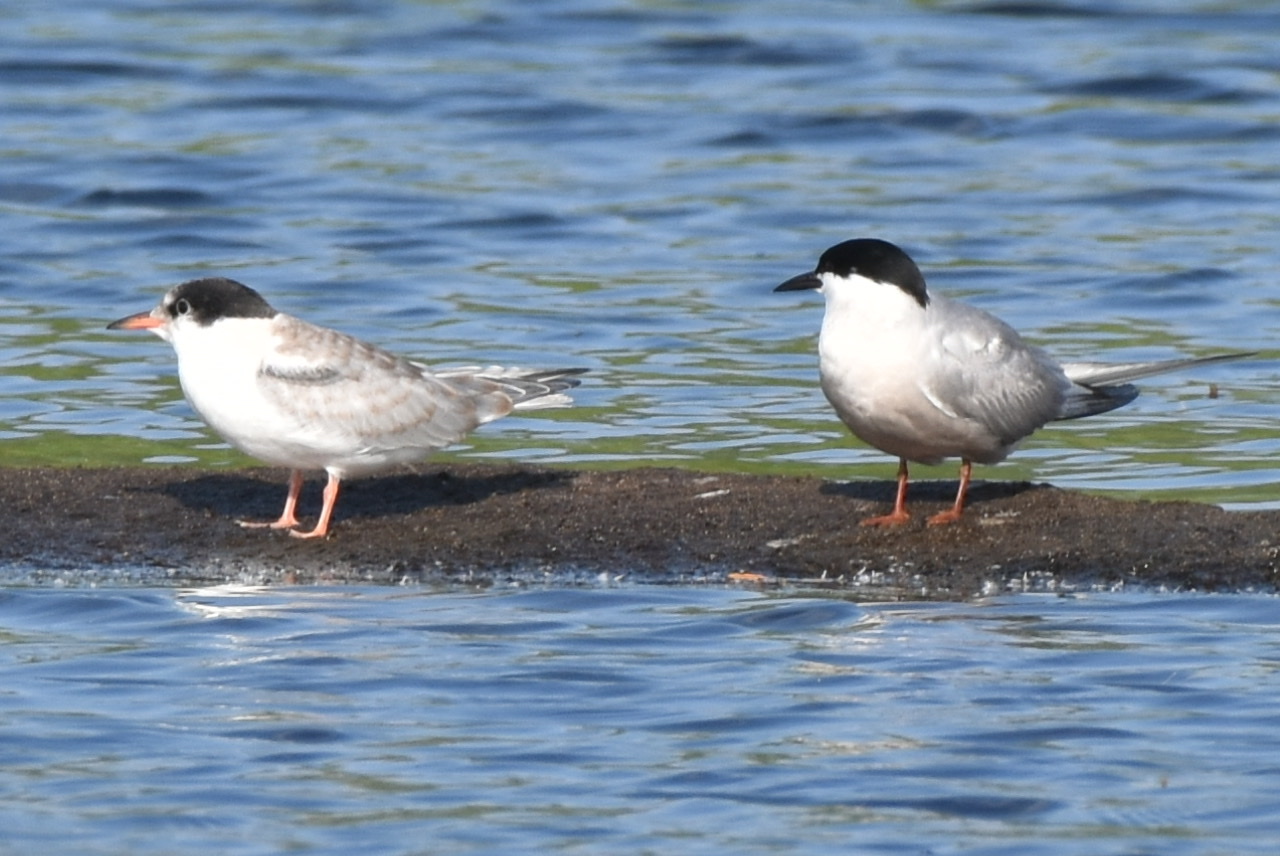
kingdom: Animalia
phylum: Chordata
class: Aves
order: Charadriiformes
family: Laridae
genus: Sterna
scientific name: Sterna hirundo
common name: Common tern
